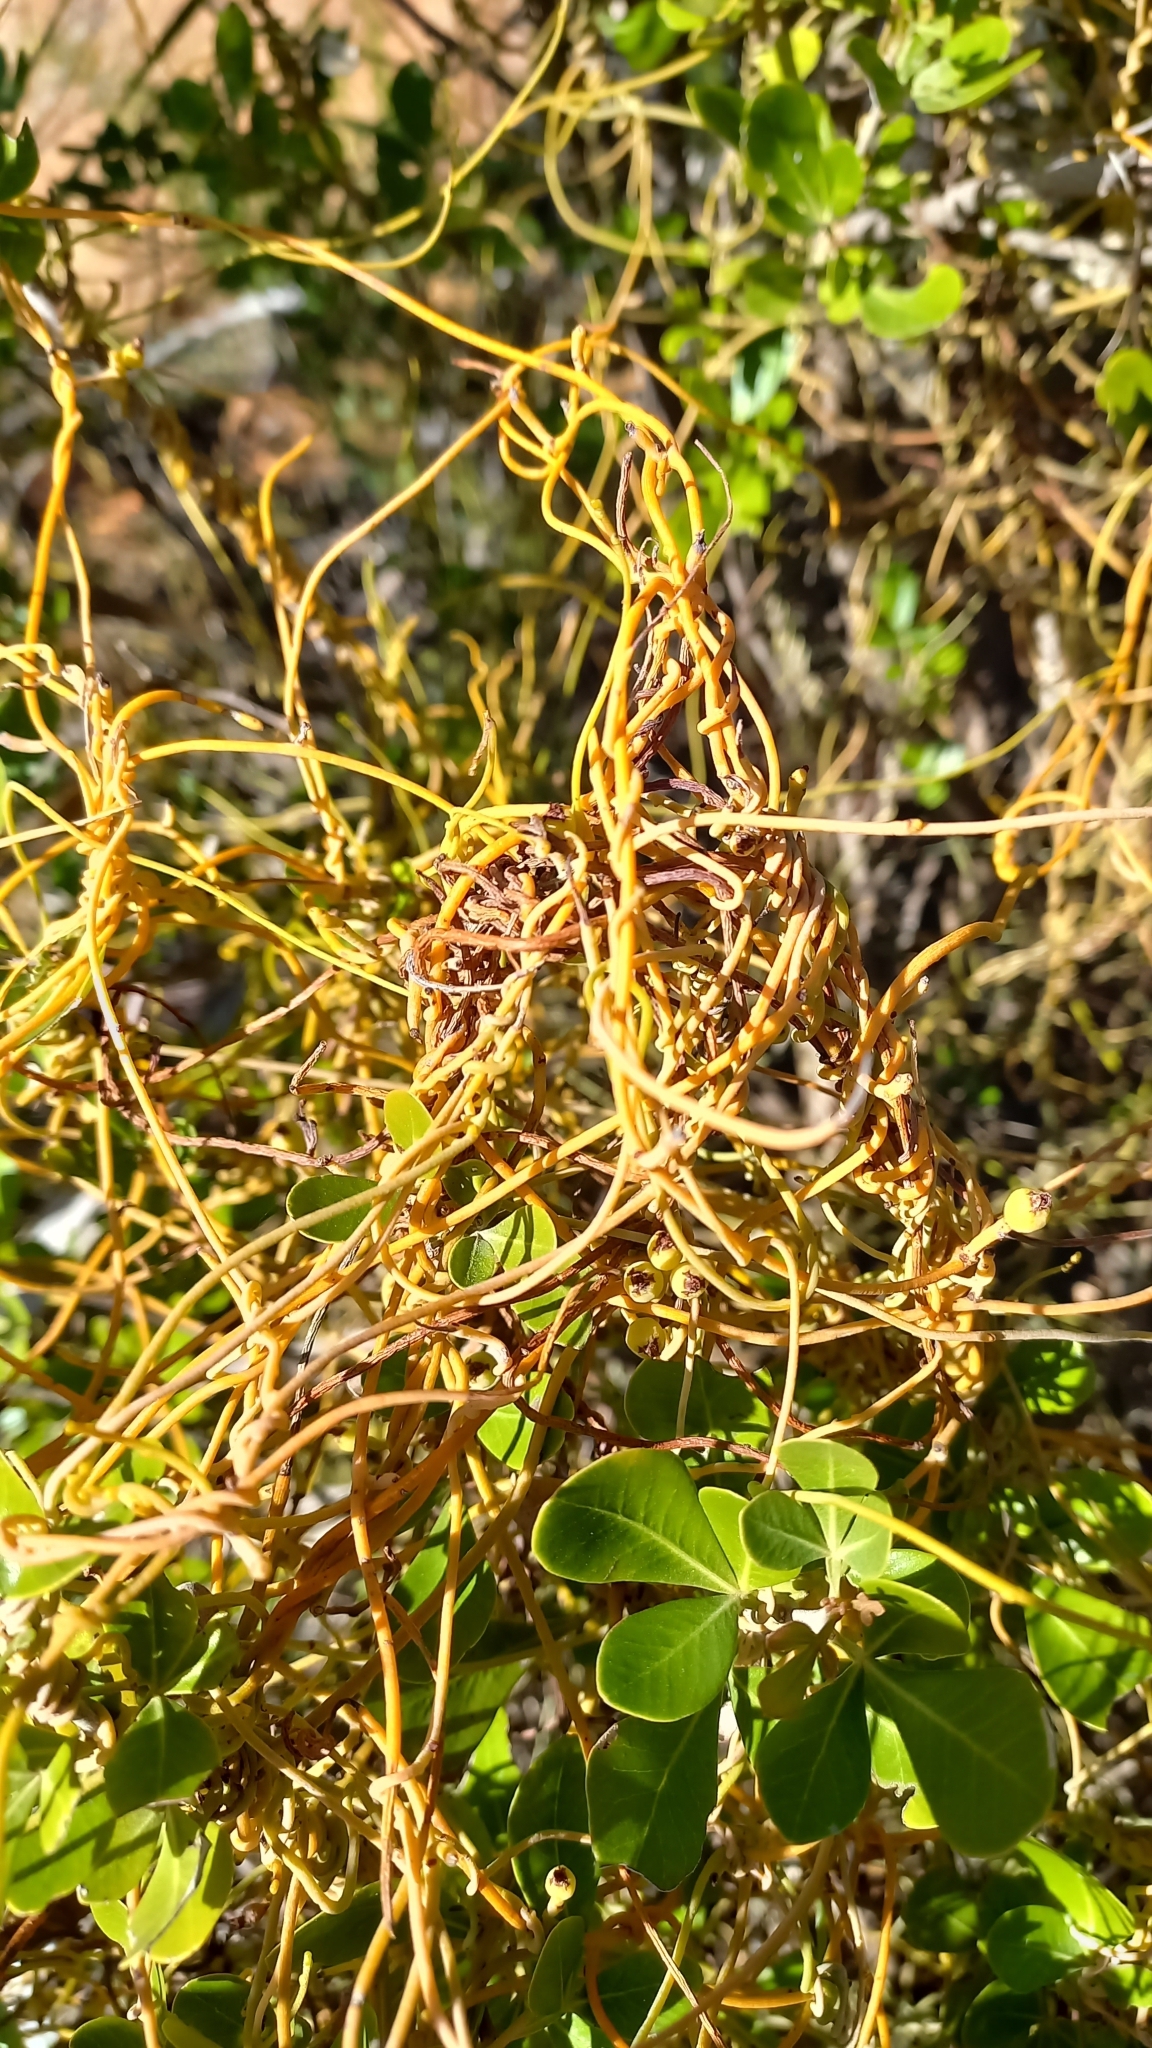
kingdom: Plantae
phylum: Tracheophyta
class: Magnoliopsida
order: Laurales
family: Lauraceae
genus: Cassytha
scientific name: Cassytha ciliolata
